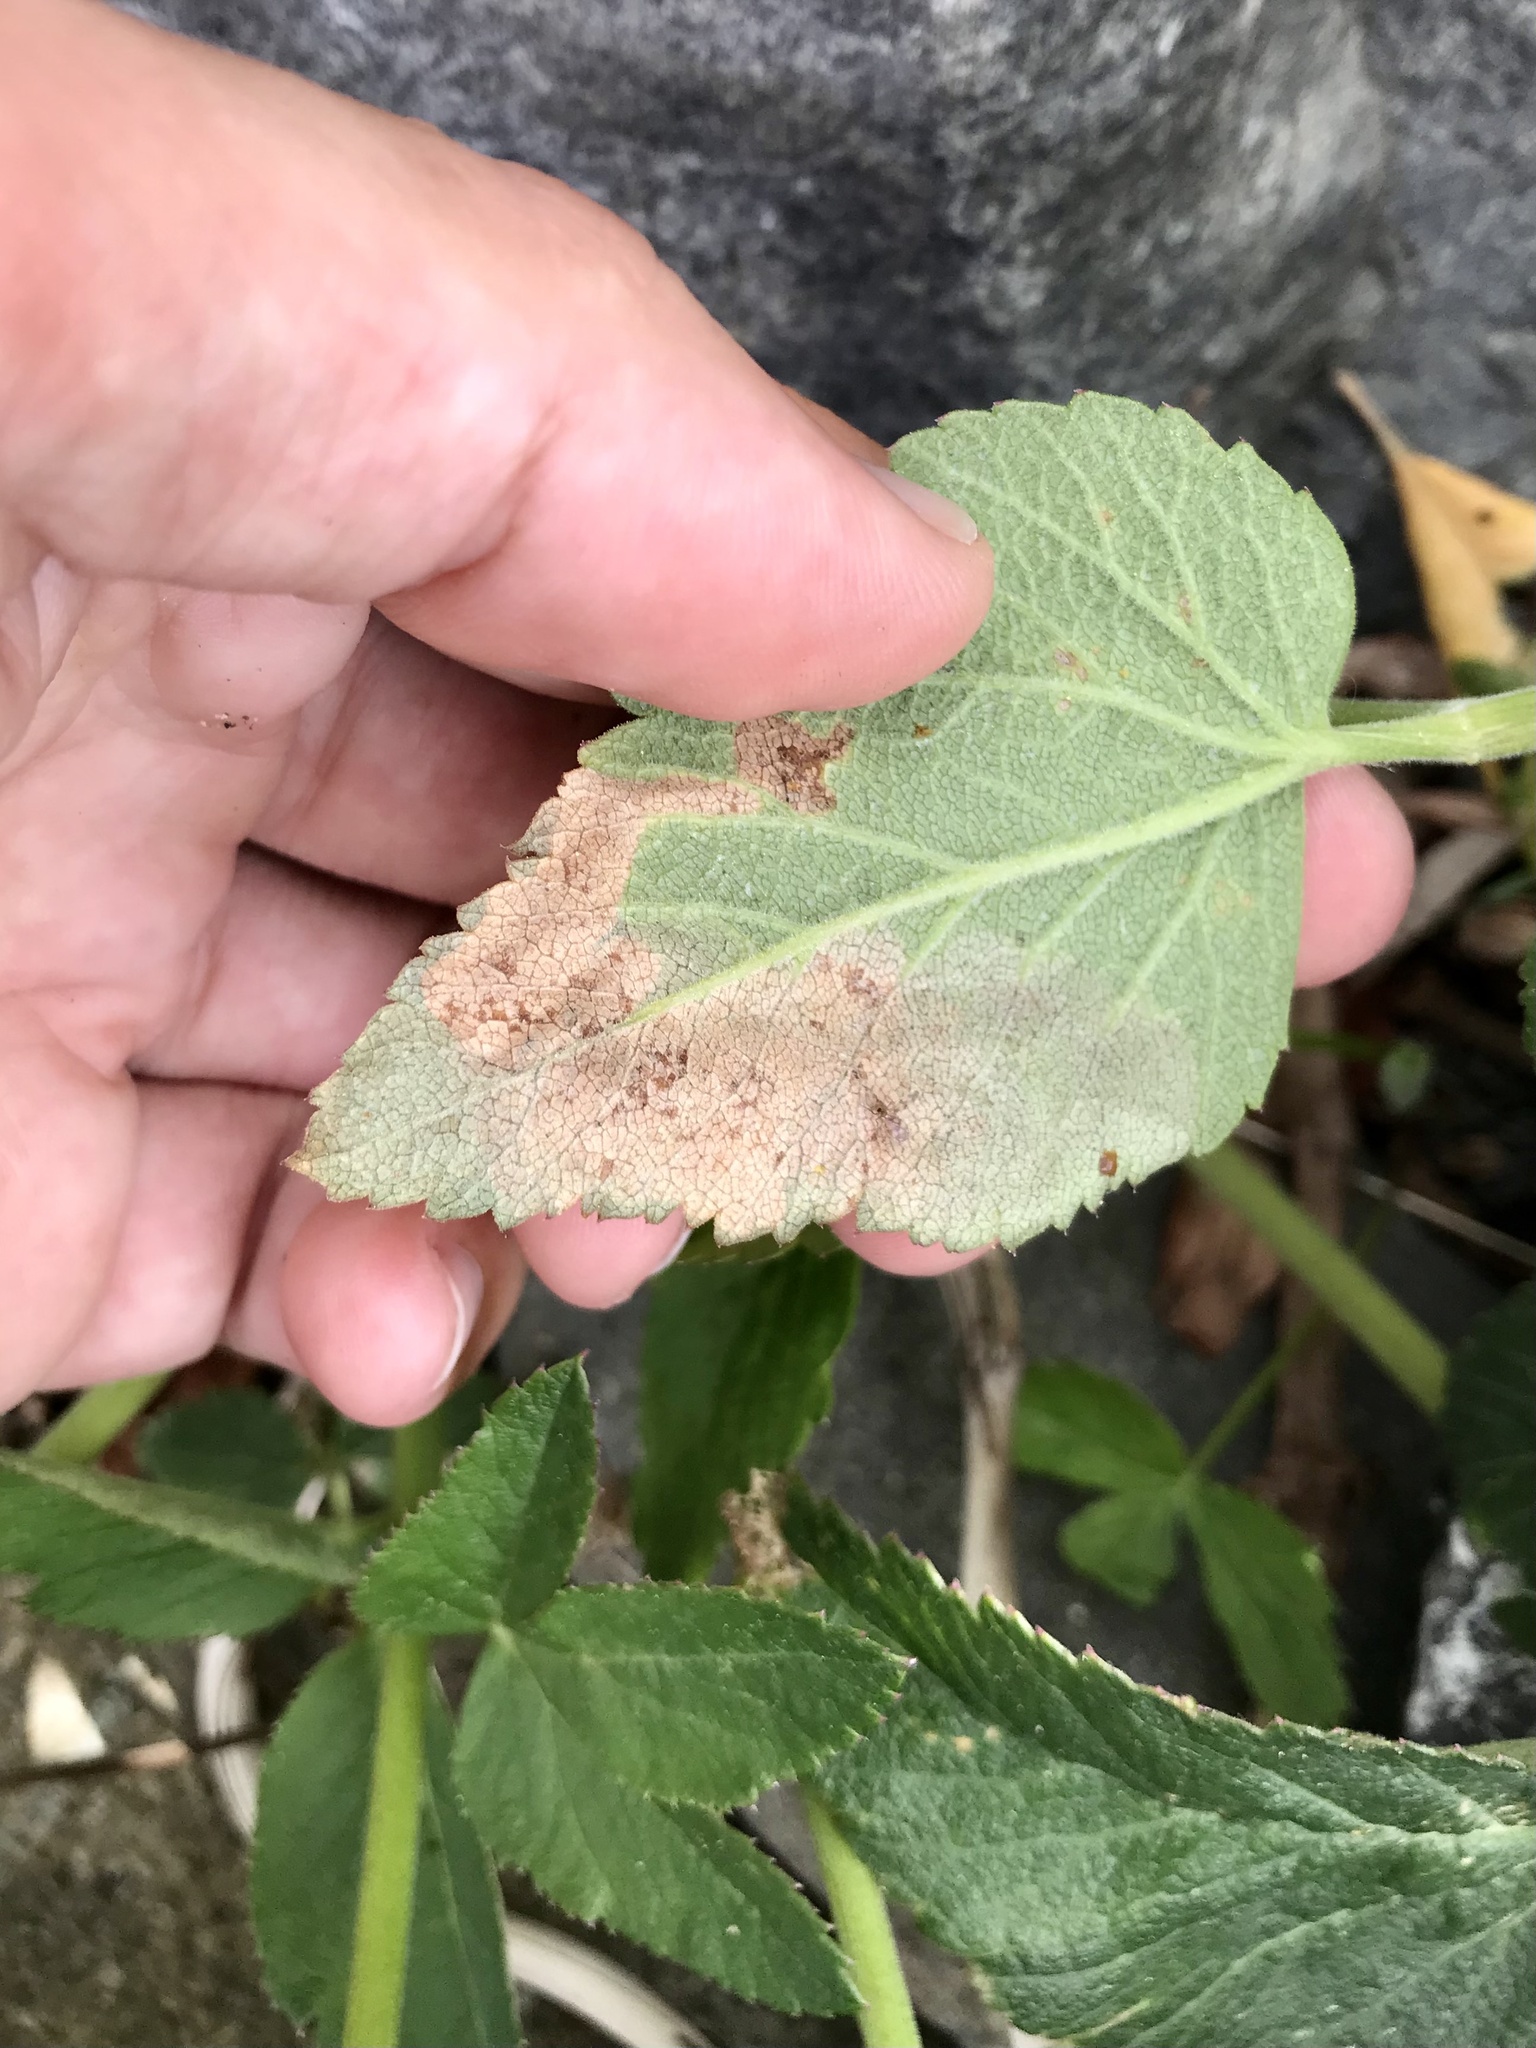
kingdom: Animalia
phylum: Arthropoda
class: Insecta
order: Diptera
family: Tephritidae
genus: Euleia
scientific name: Euleia fratria
